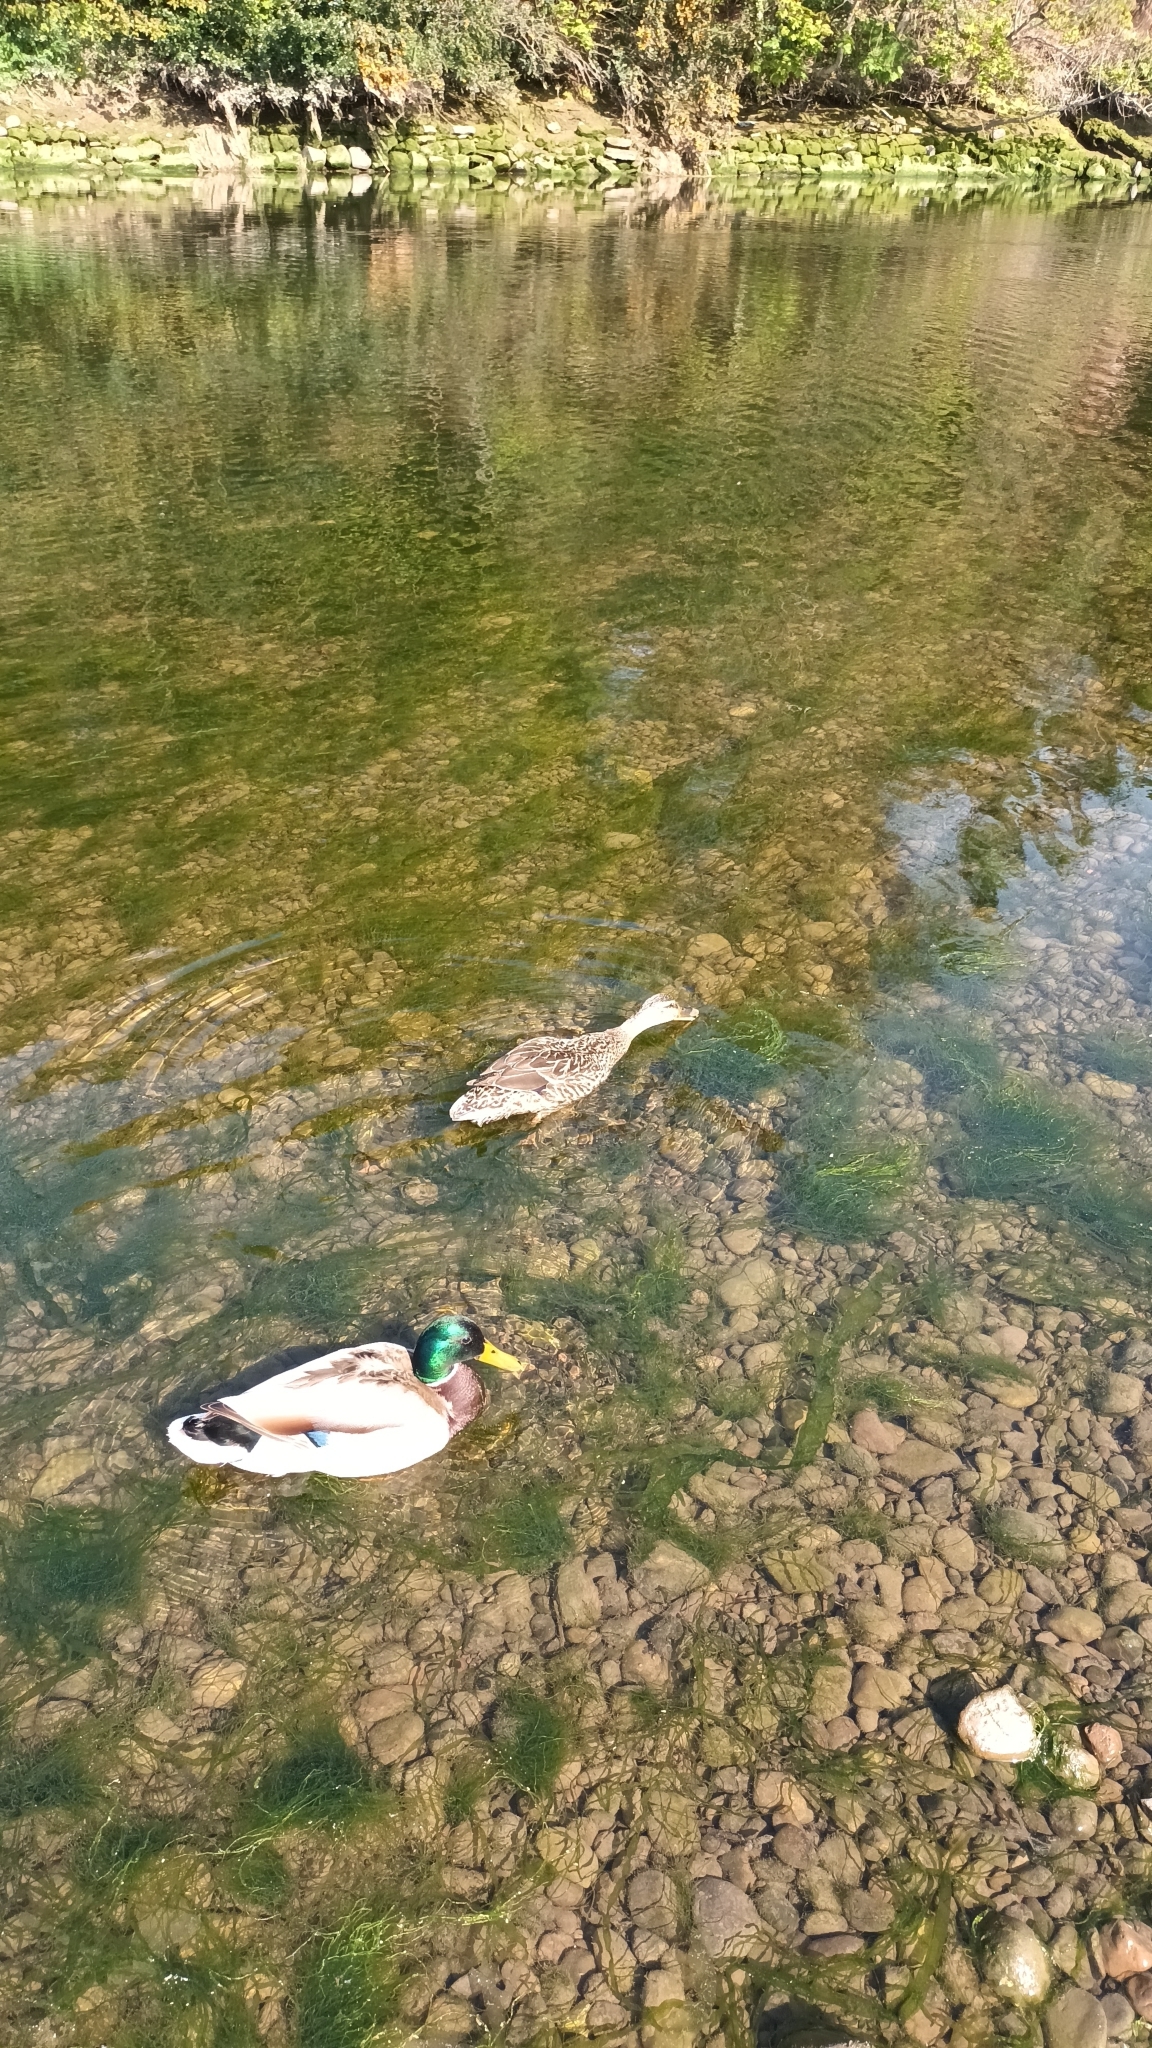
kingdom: Animalia
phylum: Chordata
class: Aves
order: Anseriformes
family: Anatidae
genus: Anas
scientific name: Anas platyrhynchos
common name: Mallard
